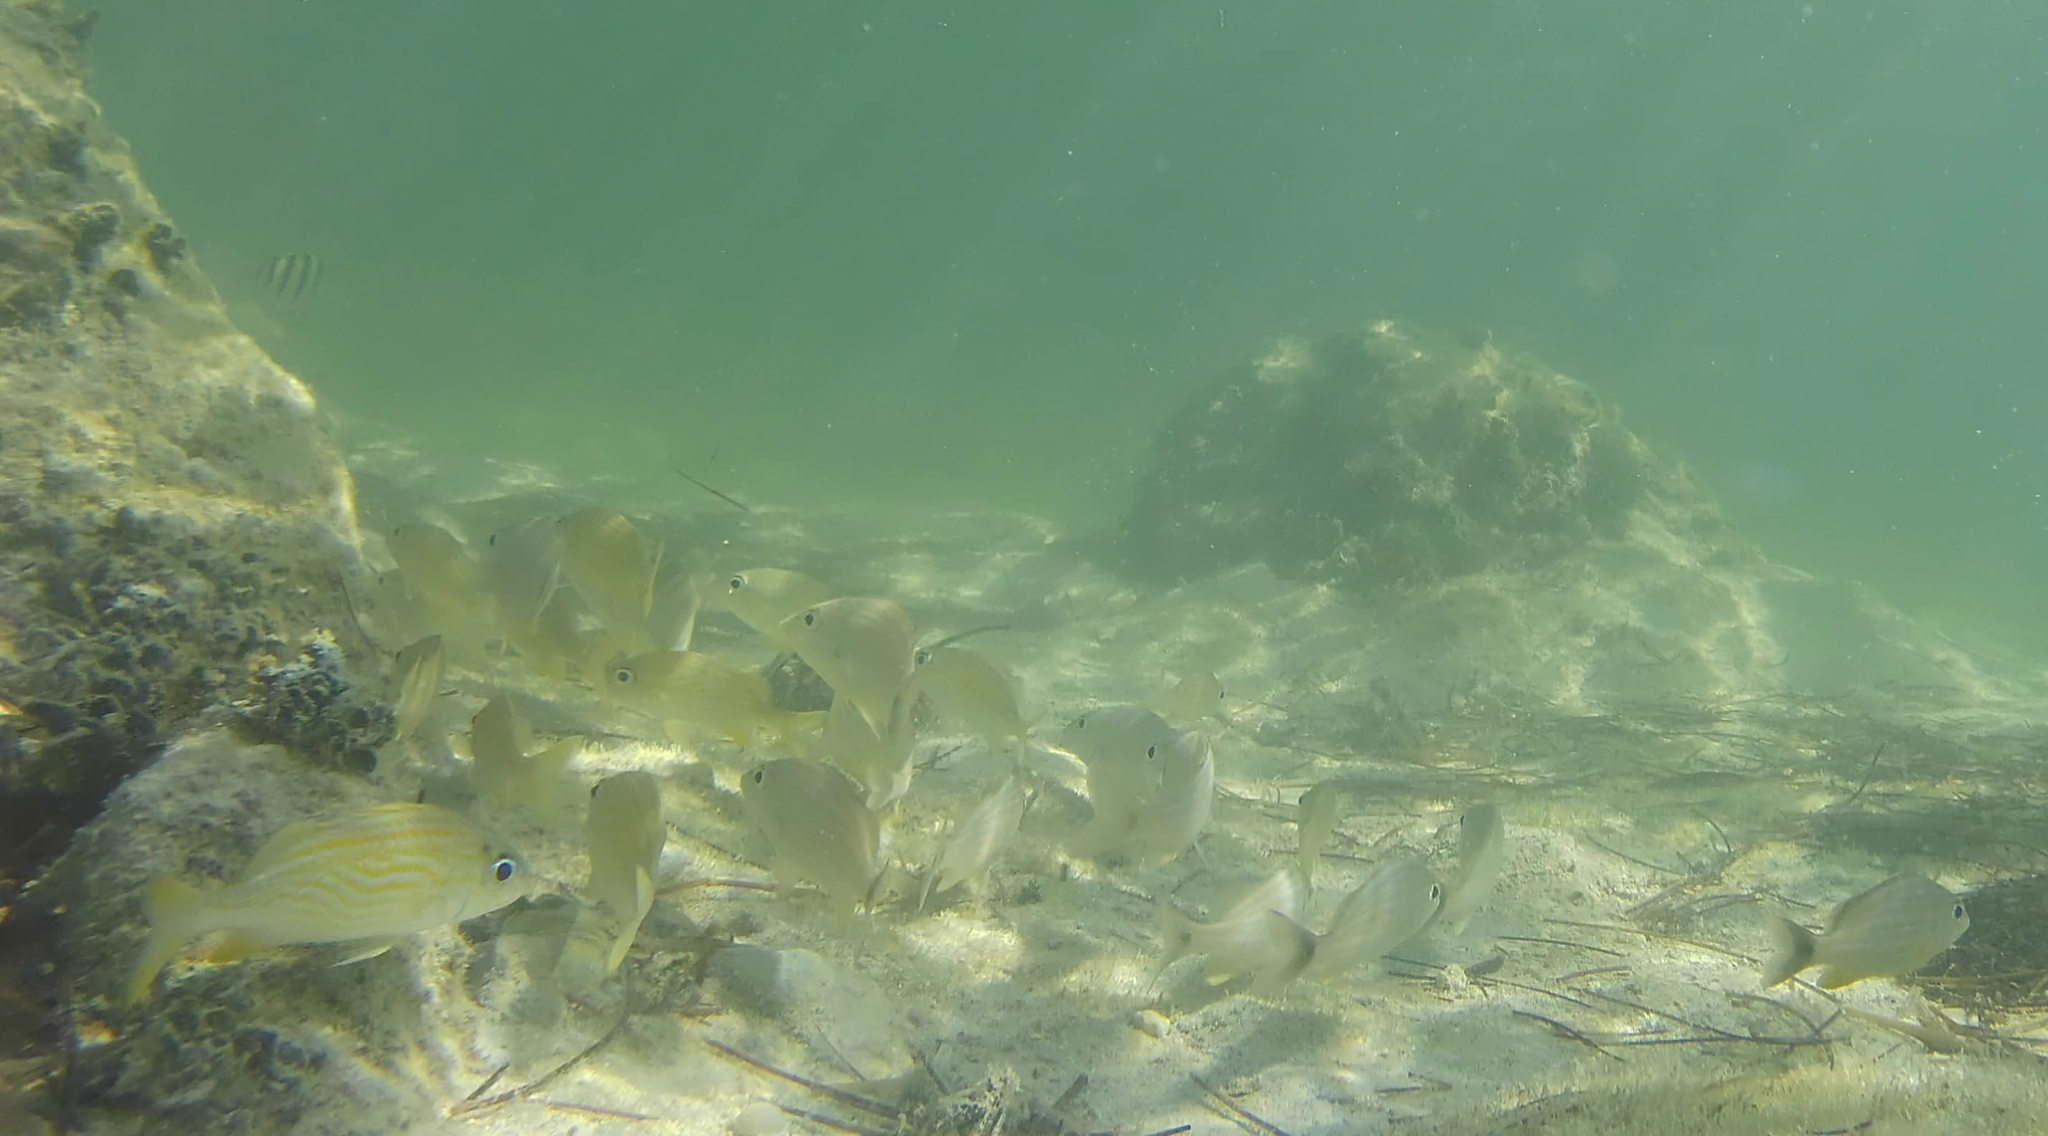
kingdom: Animalia
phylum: Chordata
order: Perciformes
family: Haemulidae
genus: Haemulon
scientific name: Haemulon flavolineatum
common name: French grunt
